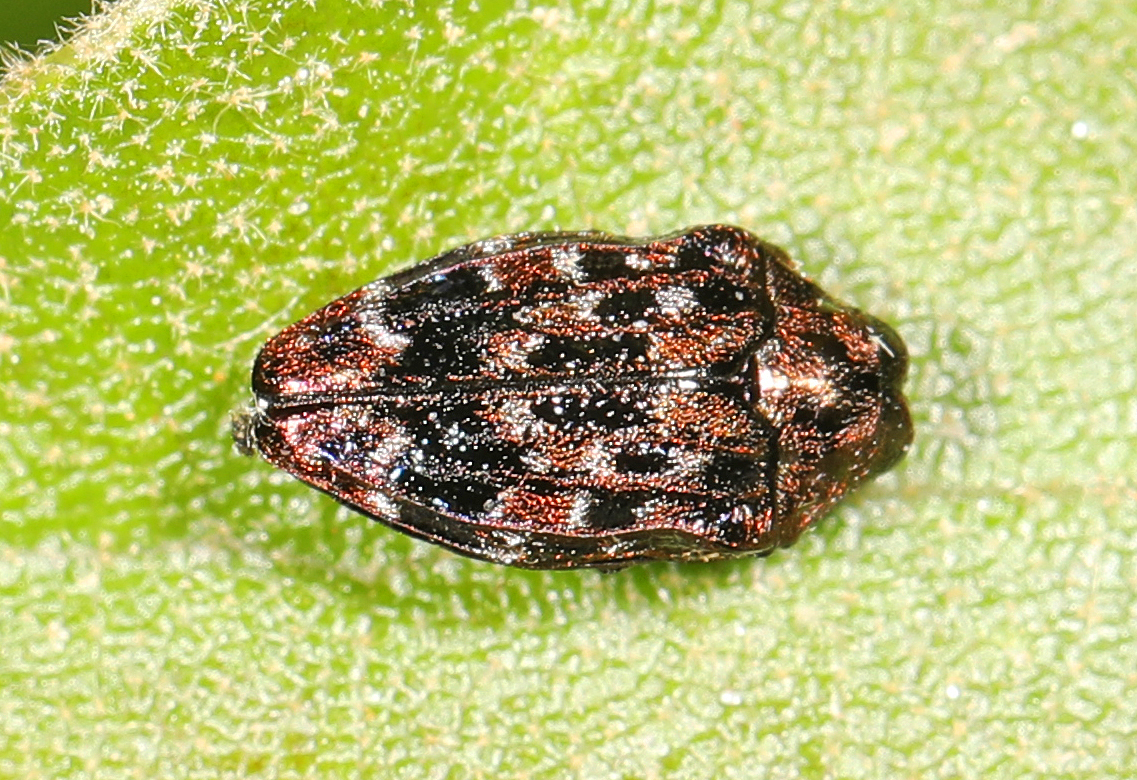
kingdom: Animalia
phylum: Arthropoda
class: Insecta
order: Coleoptera
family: Buprestidae
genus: Brachys
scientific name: Brachys ovatus
